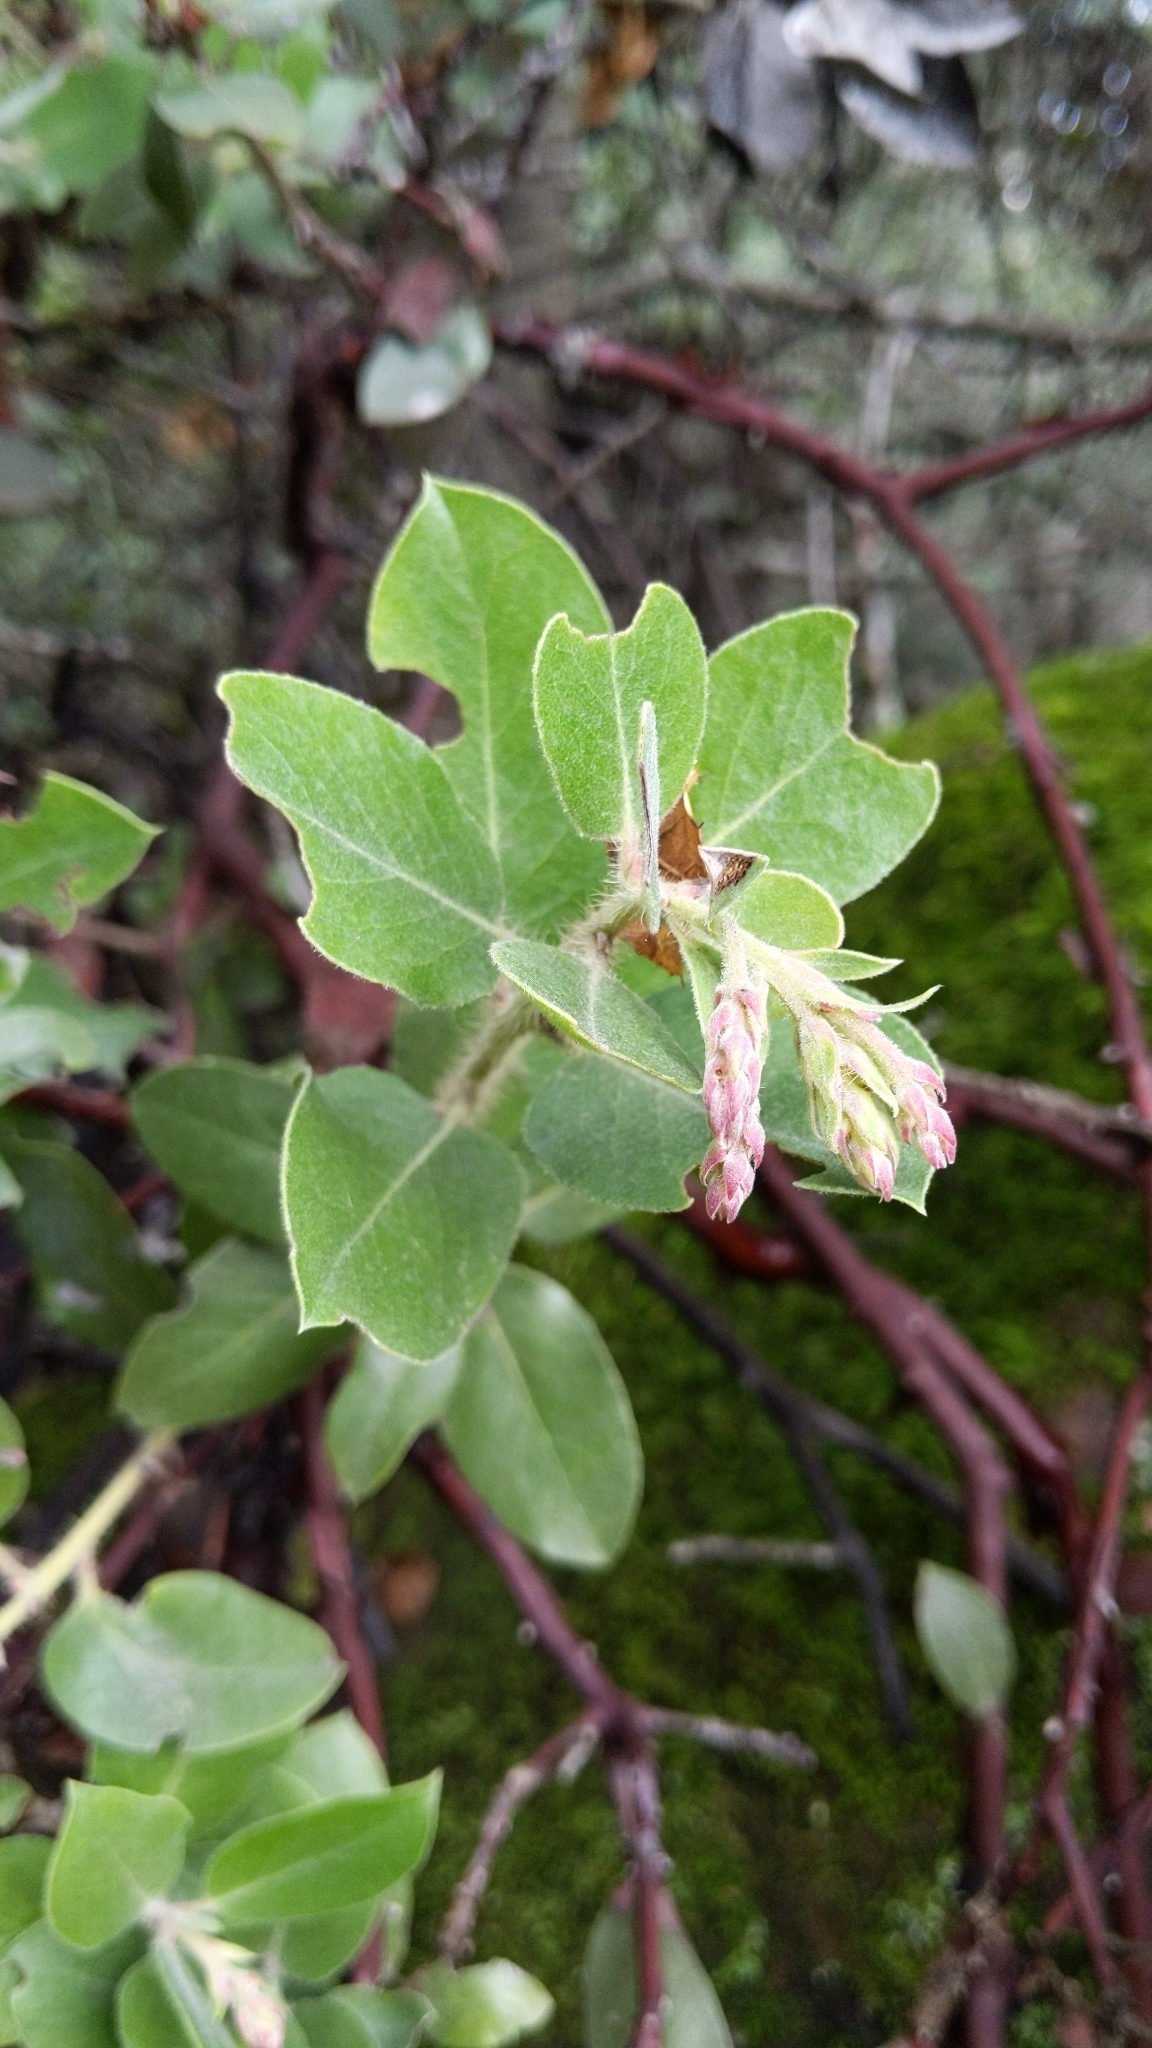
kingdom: Plantae
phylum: Tracheophyta
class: Magnoliopsida
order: Ericales
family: Ericaceae
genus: Arctostaphylos
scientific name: Arctostaphylos crustacea
